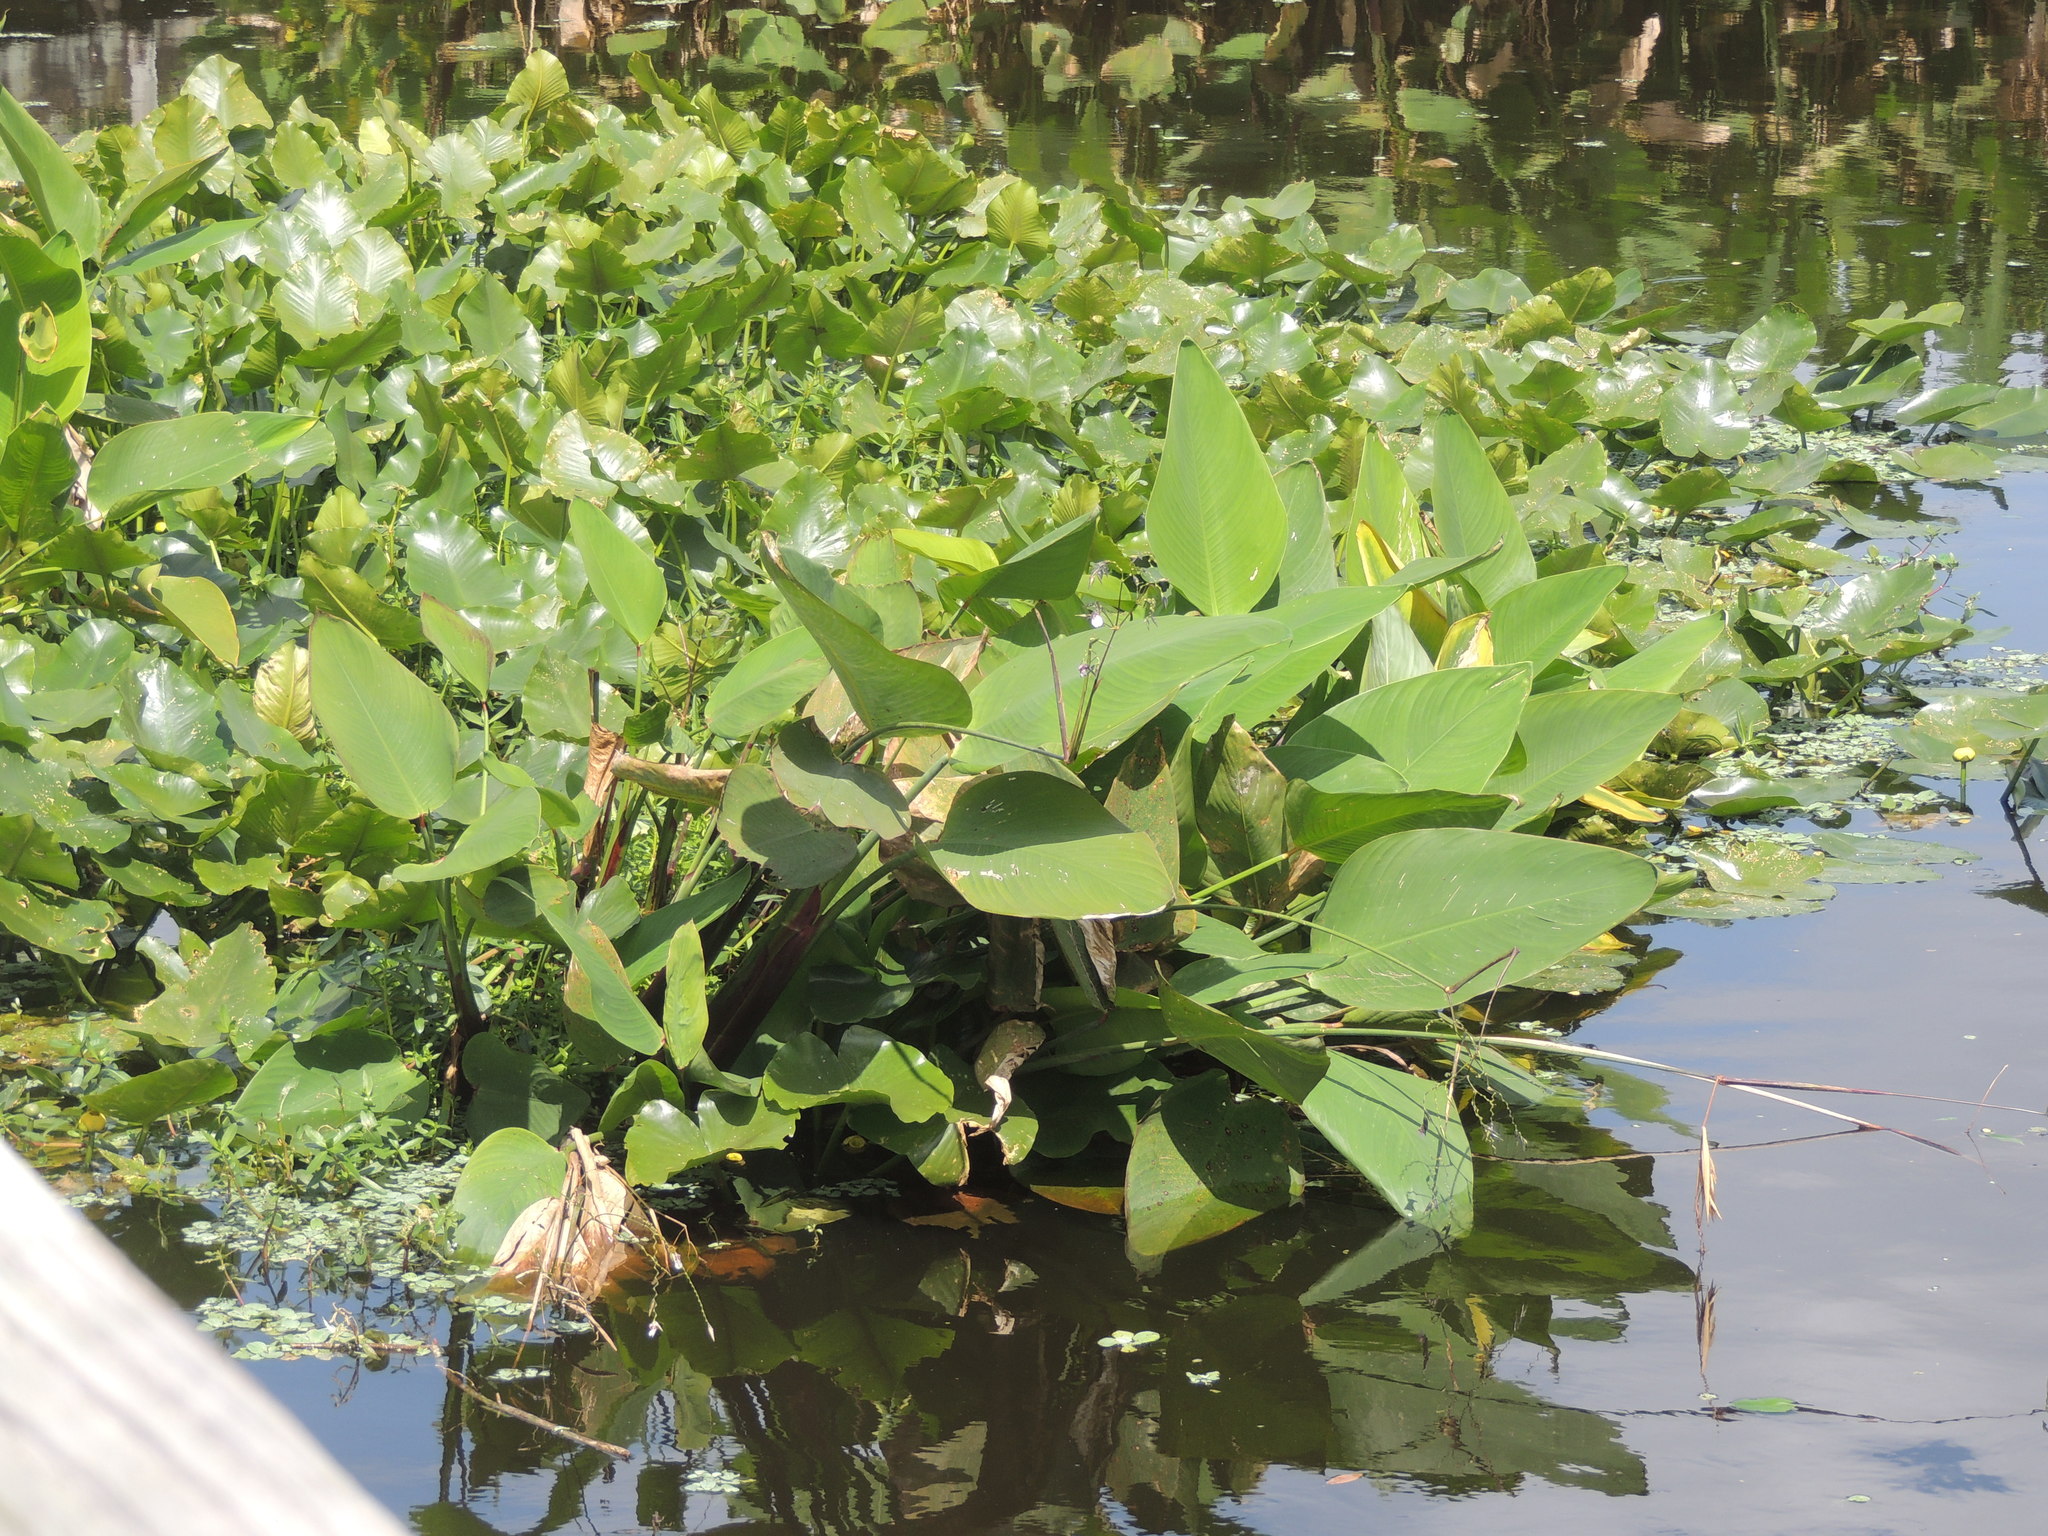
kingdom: Plantae
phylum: Tracheophyta
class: Liliopsida
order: Zingiberales
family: Marantaceae
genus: Thalia
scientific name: Thalia geniculata
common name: Arrowroot
